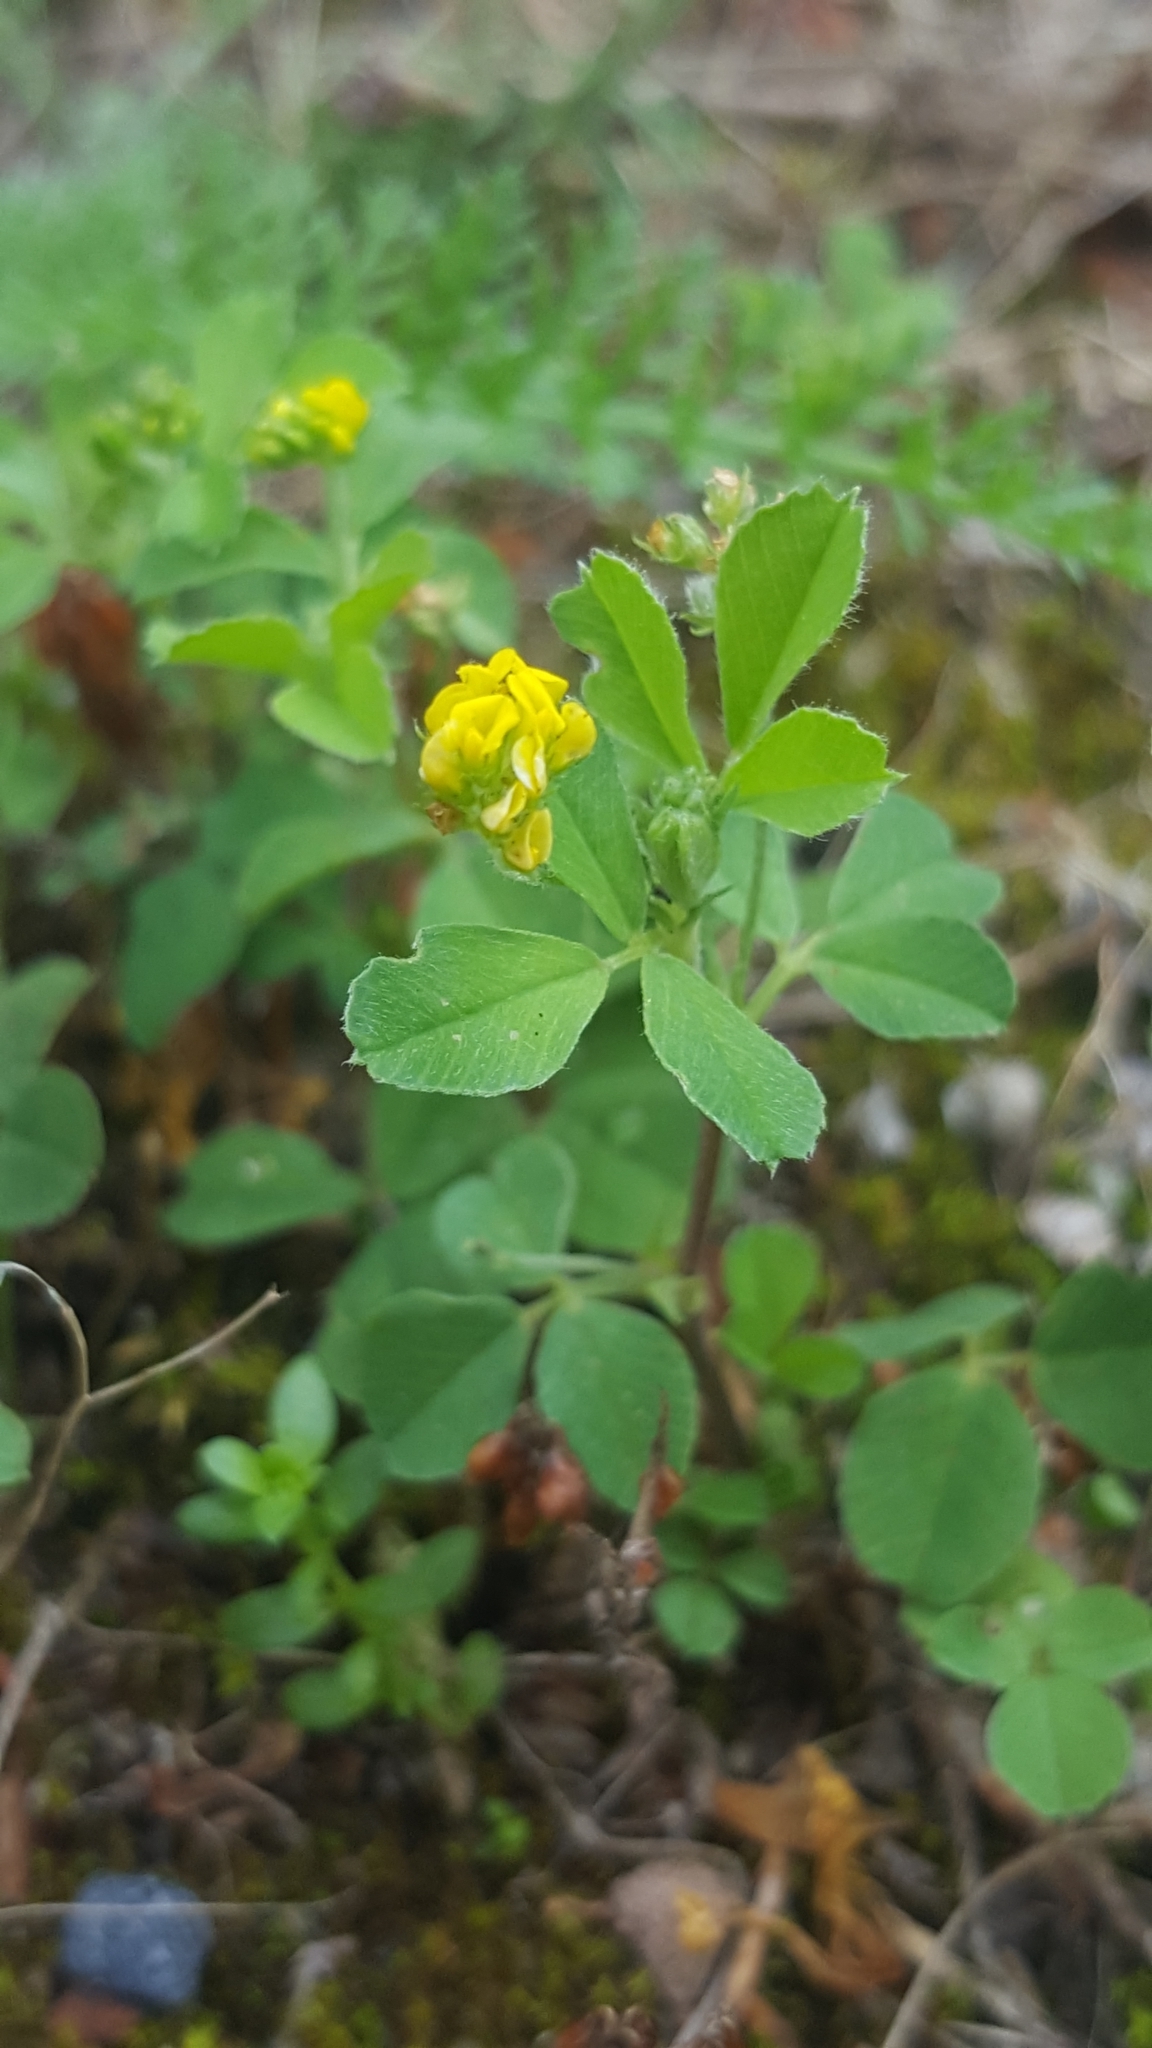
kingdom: Plantae
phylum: Tracheophyta
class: Magnoliopsida
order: Fabales
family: Fabaceae
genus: Medicago
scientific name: Medicago lupulina
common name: Black medick
